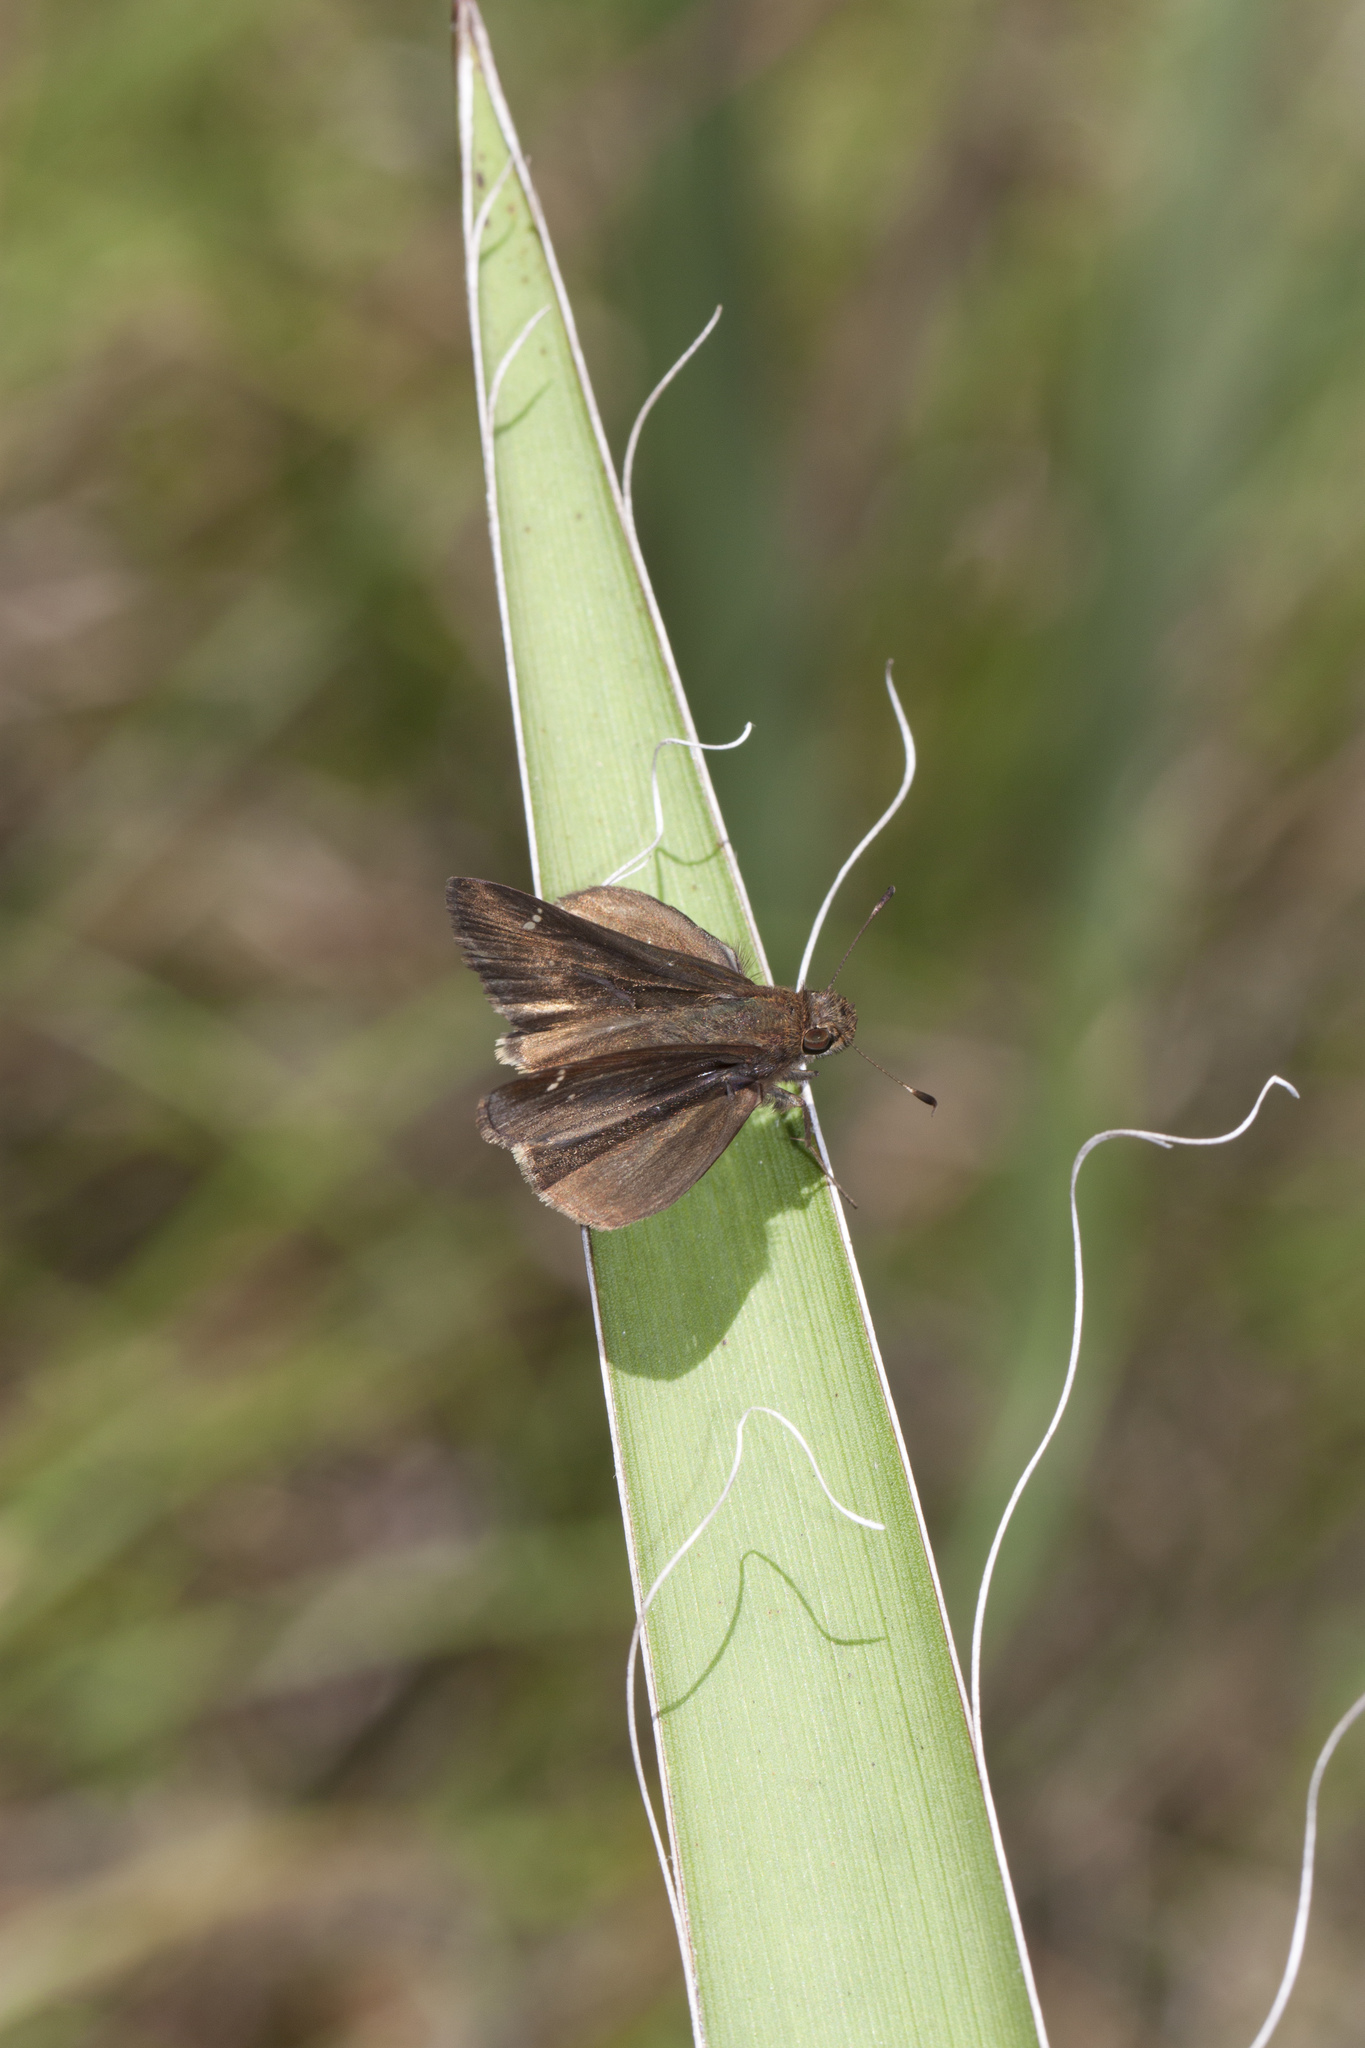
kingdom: Animalia
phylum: Arthropoda
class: Insecta
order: Lepidoptera
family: Hesperiidae
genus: Lerema
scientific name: Lerema accius
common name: Clouded skipper
